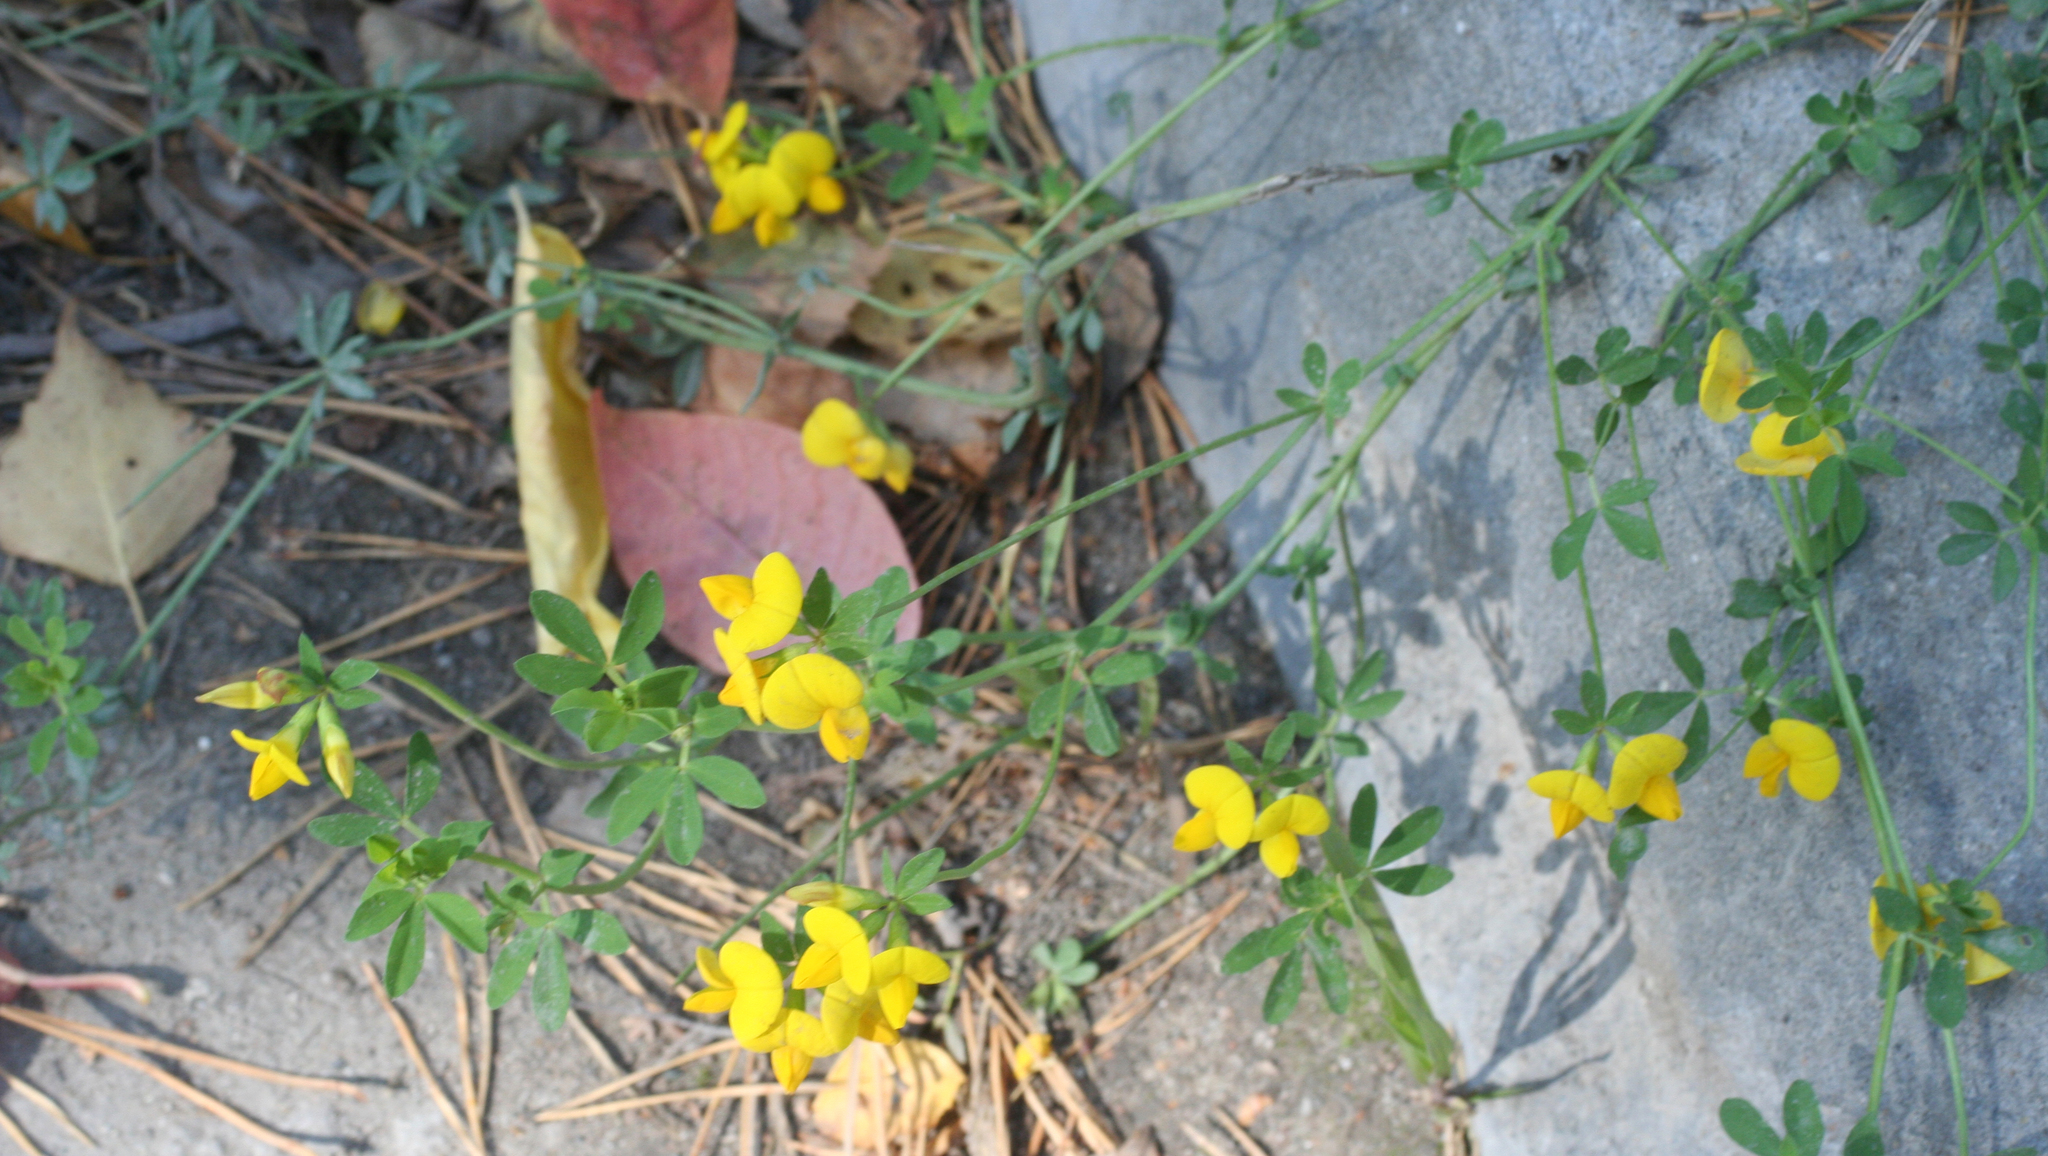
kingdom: Plantae
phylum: Tracheophyta
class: Magnoliopsida
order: Fabales
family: Fabaceae
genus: Lotus
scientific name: Lotus corniculatus
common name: Common bird's-foot-trefoil
